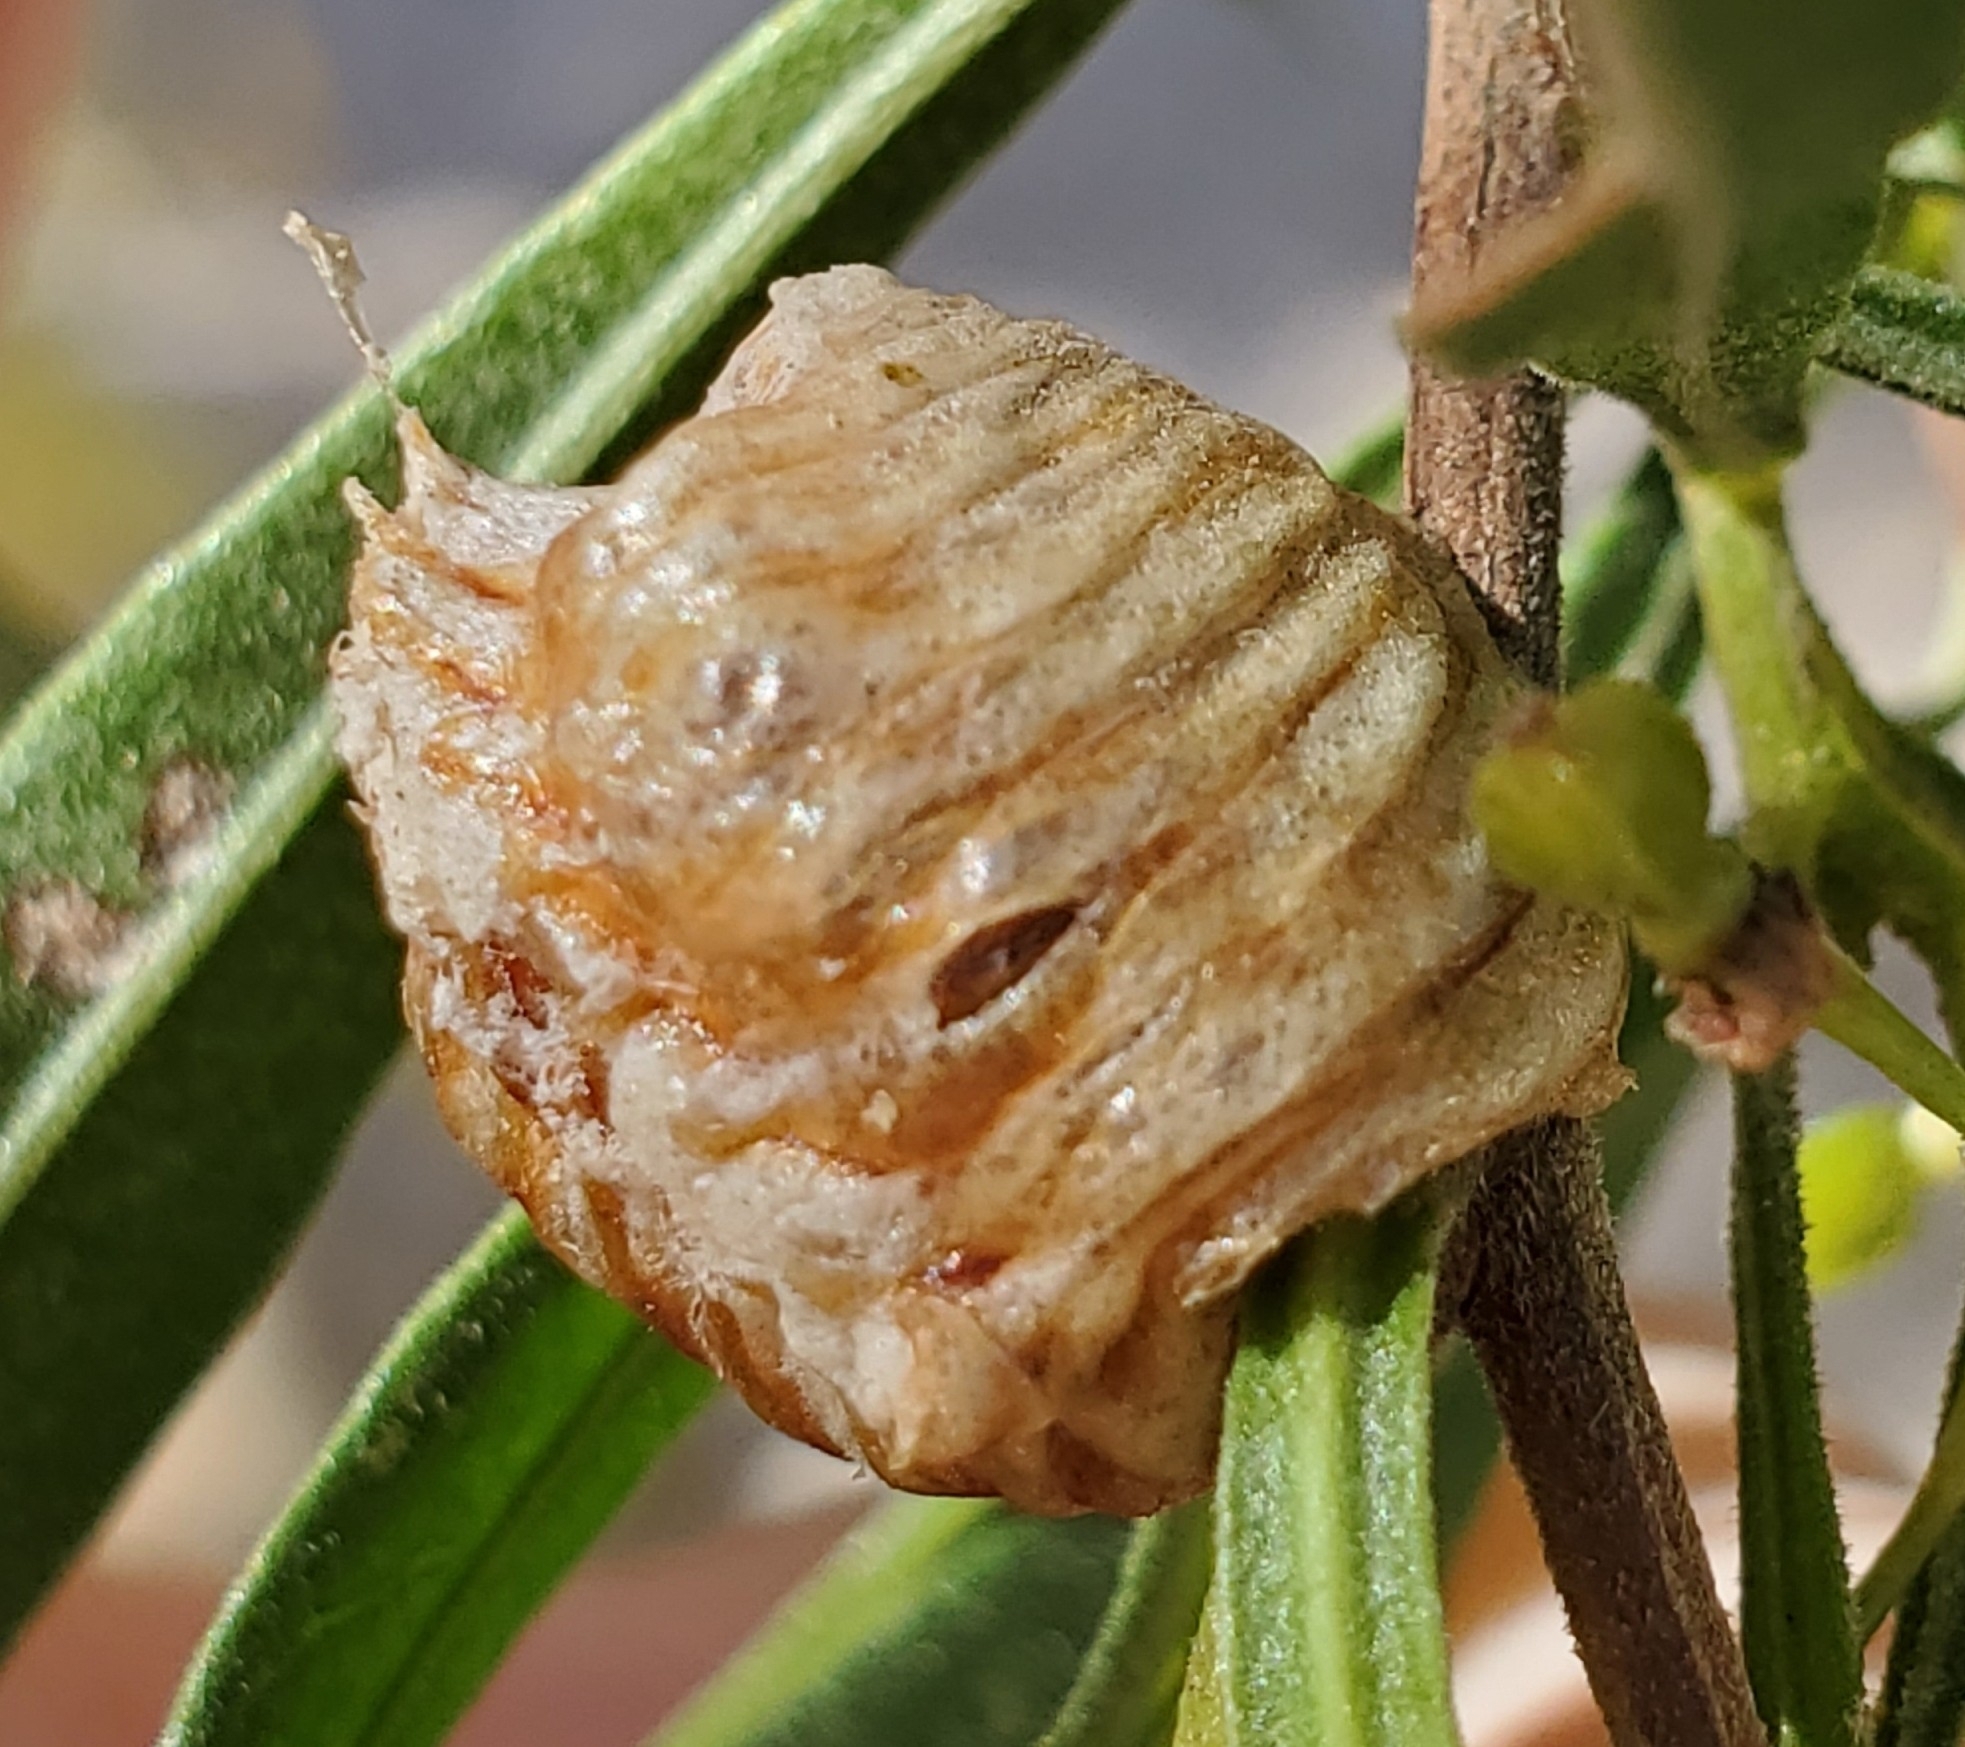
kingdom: Animalia
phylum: Arthropoda
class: Insecta
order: Mantodea
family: Mantidae
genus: Pseudovates
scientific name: Pseudovates arizonae
